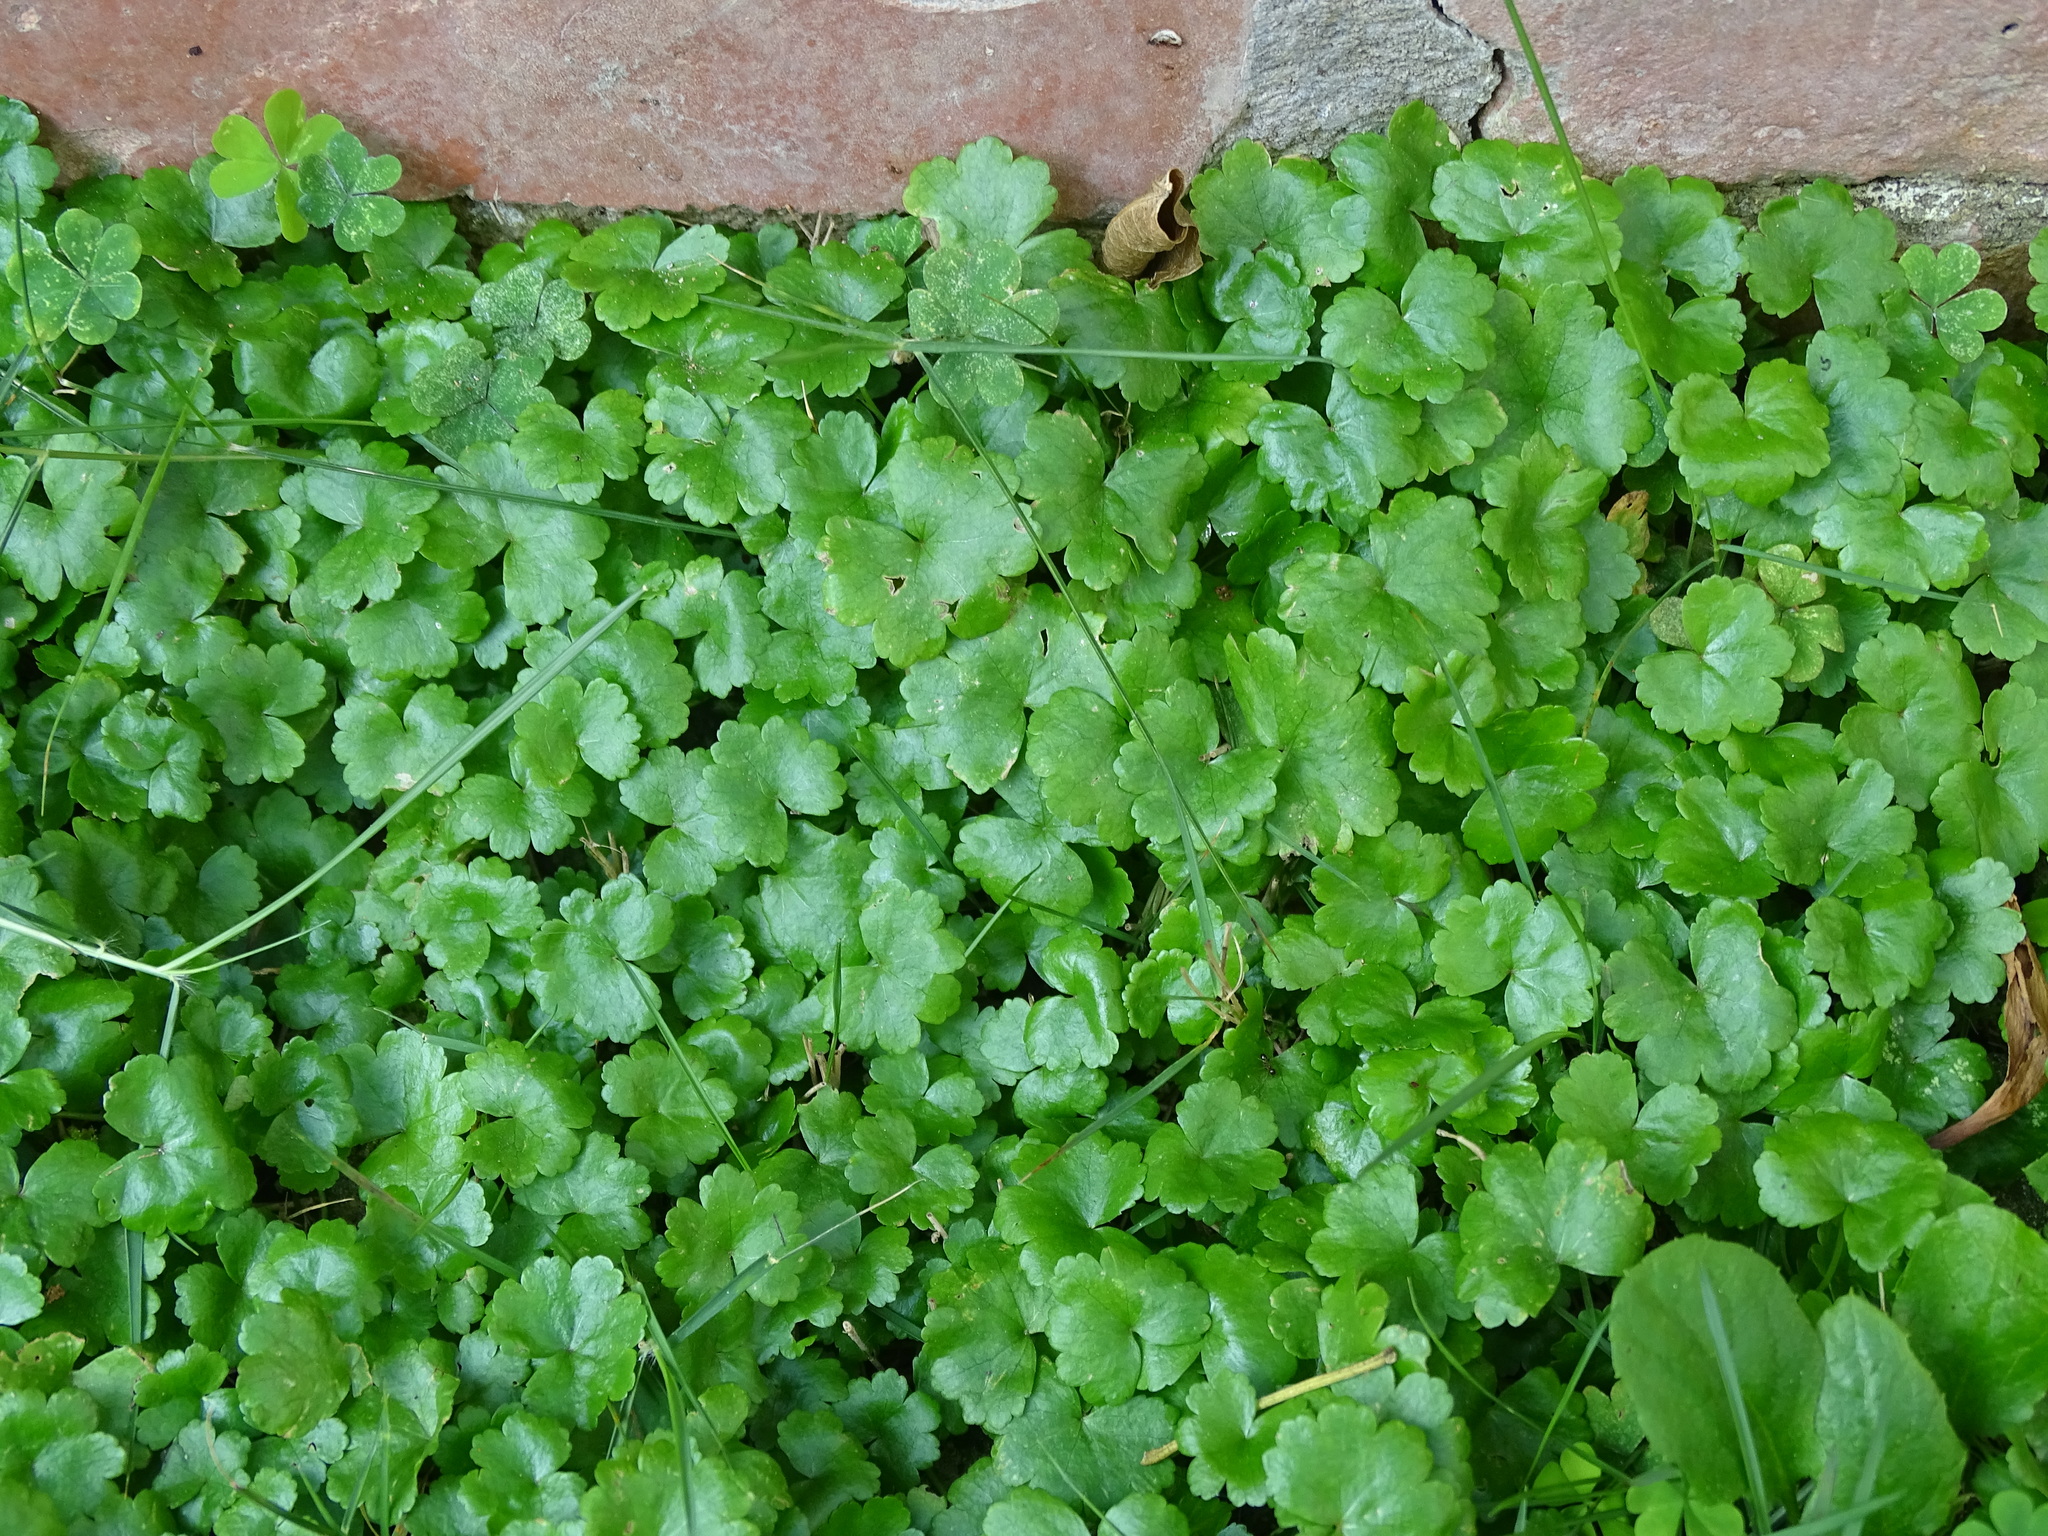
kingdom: Plantae
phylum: Tracheophyta
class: Magnoliopsida
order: Apiales
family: Araliaceae
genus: Hydrocotyle
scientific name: Hydrocotyle sibthorpioides
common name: Lawn marshpennywort
